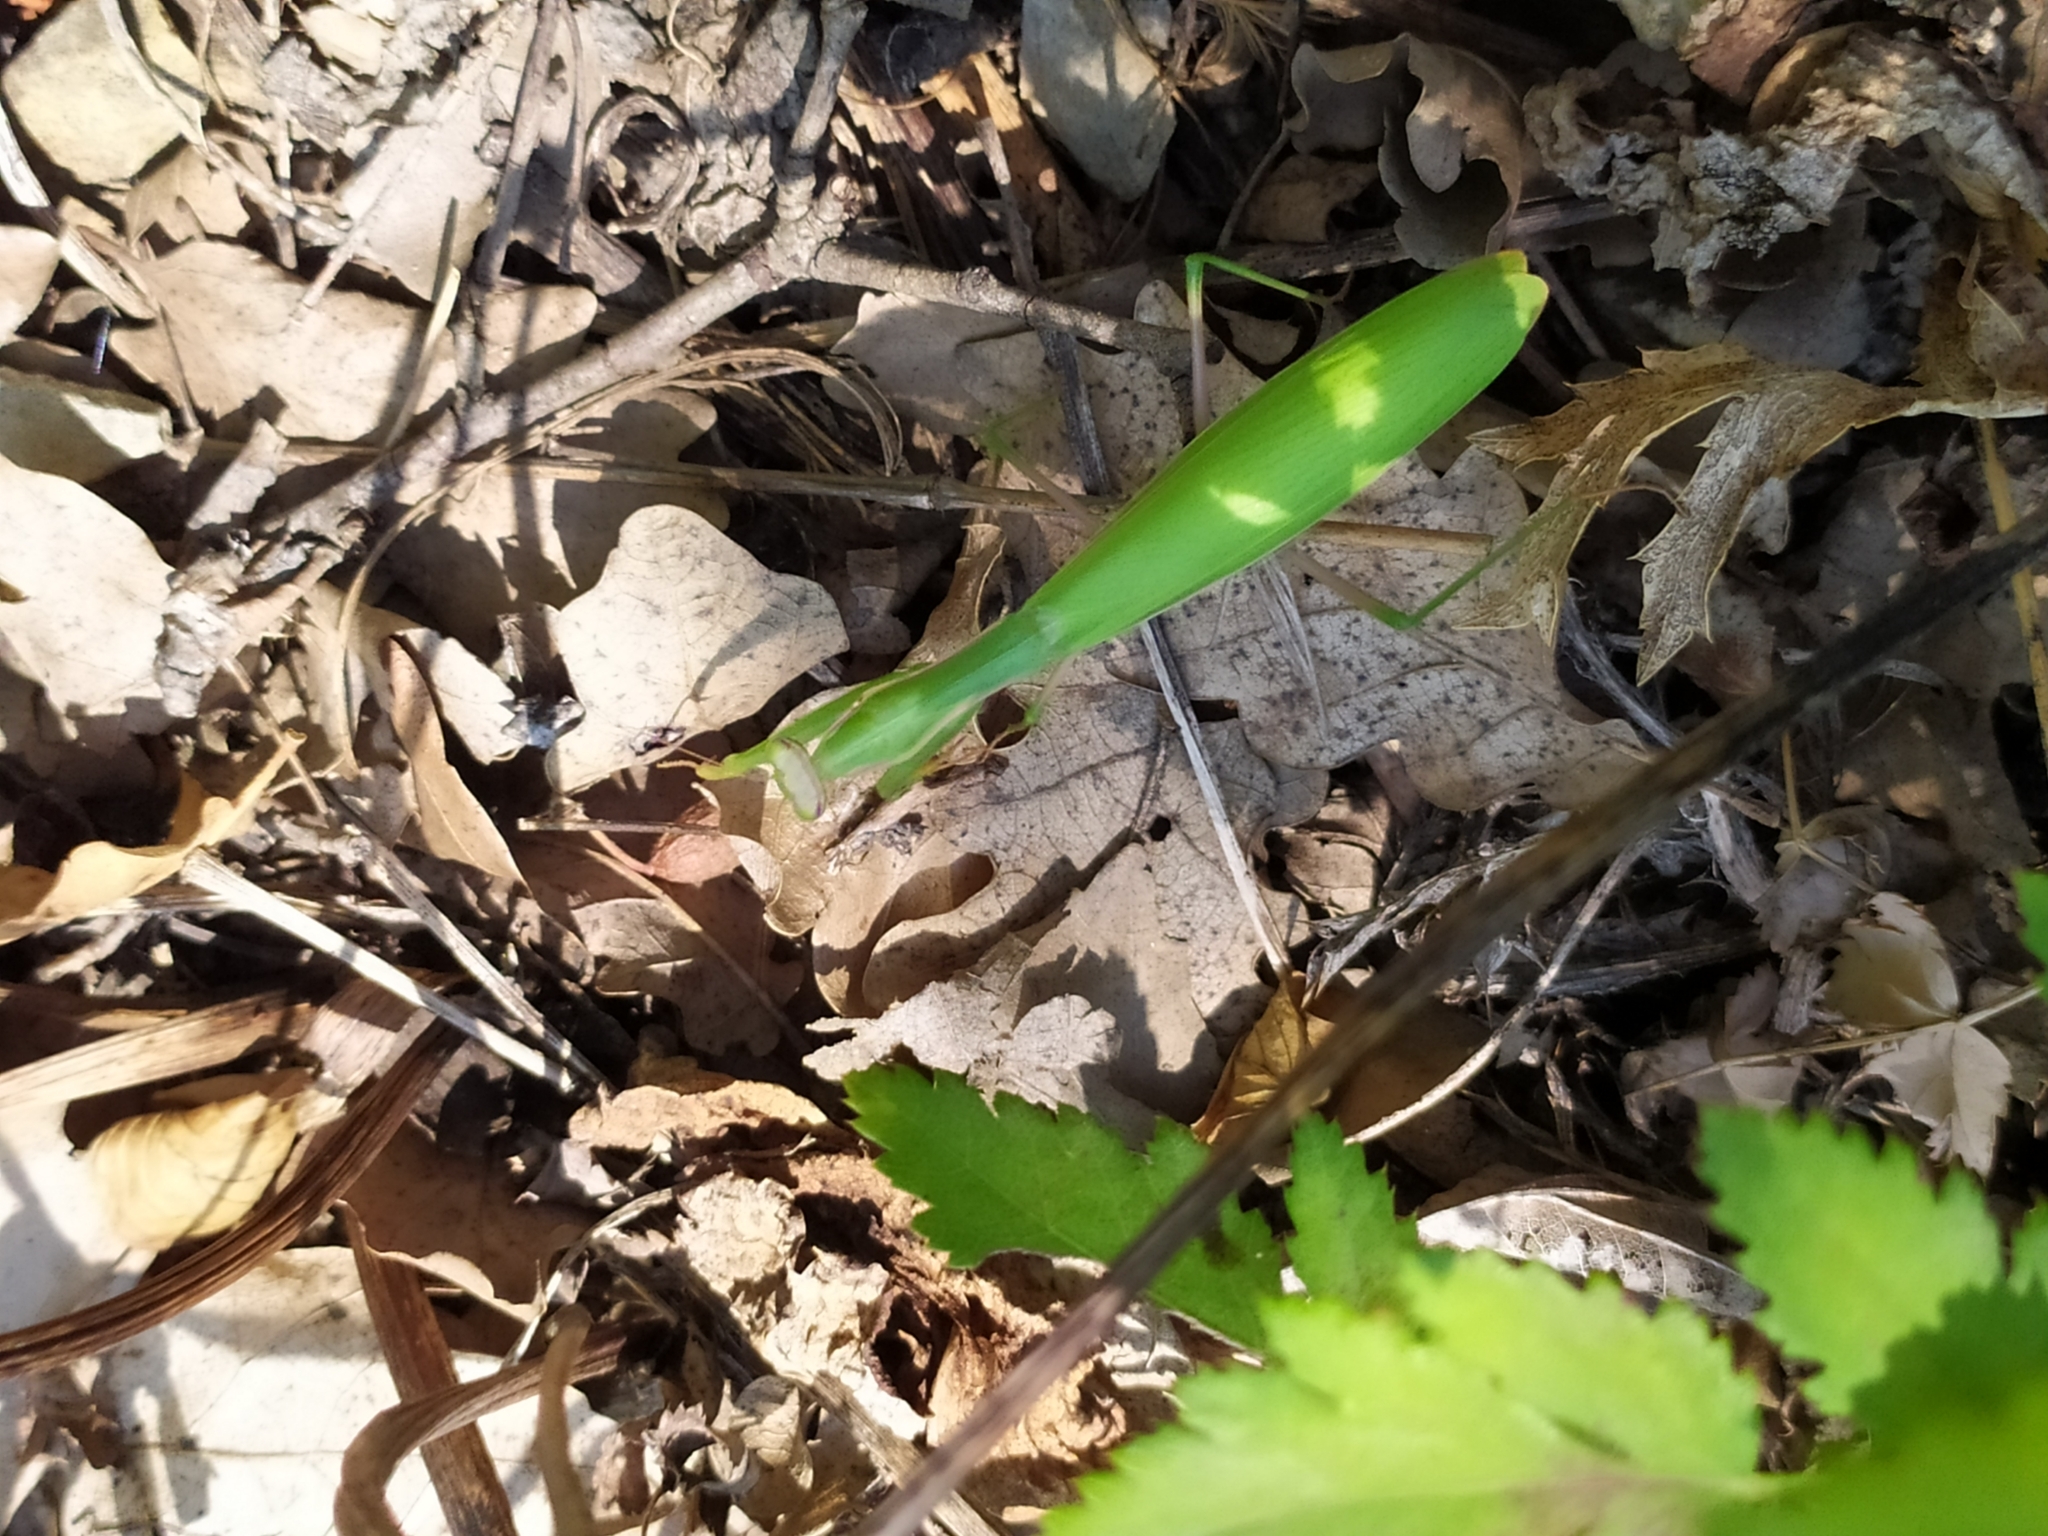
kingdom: Animalia
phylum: Arthropoda
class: Insecta
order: Mantodea
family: Mantidae
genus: Mantis
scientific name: Mantis religiosa
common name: Praying mantis
